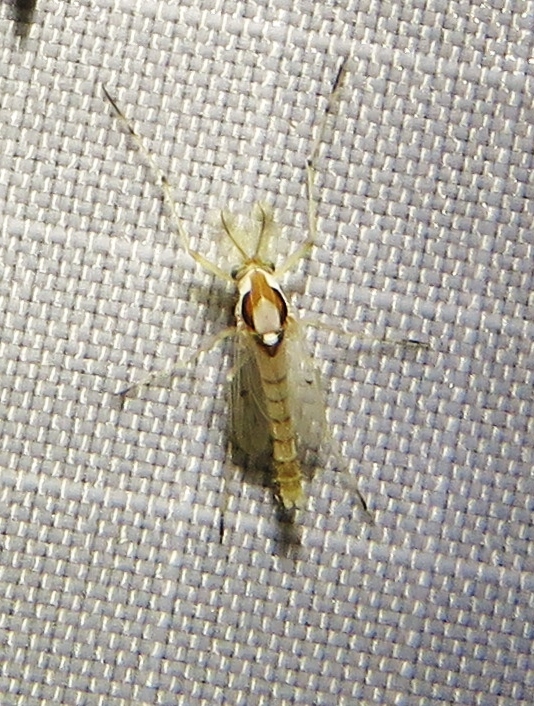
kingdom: Animalia
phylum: Arthropoda
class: Insecta
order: Diptera
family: Chironomidae
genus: Coelotanypus
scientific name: Coelotanypus concinnus
